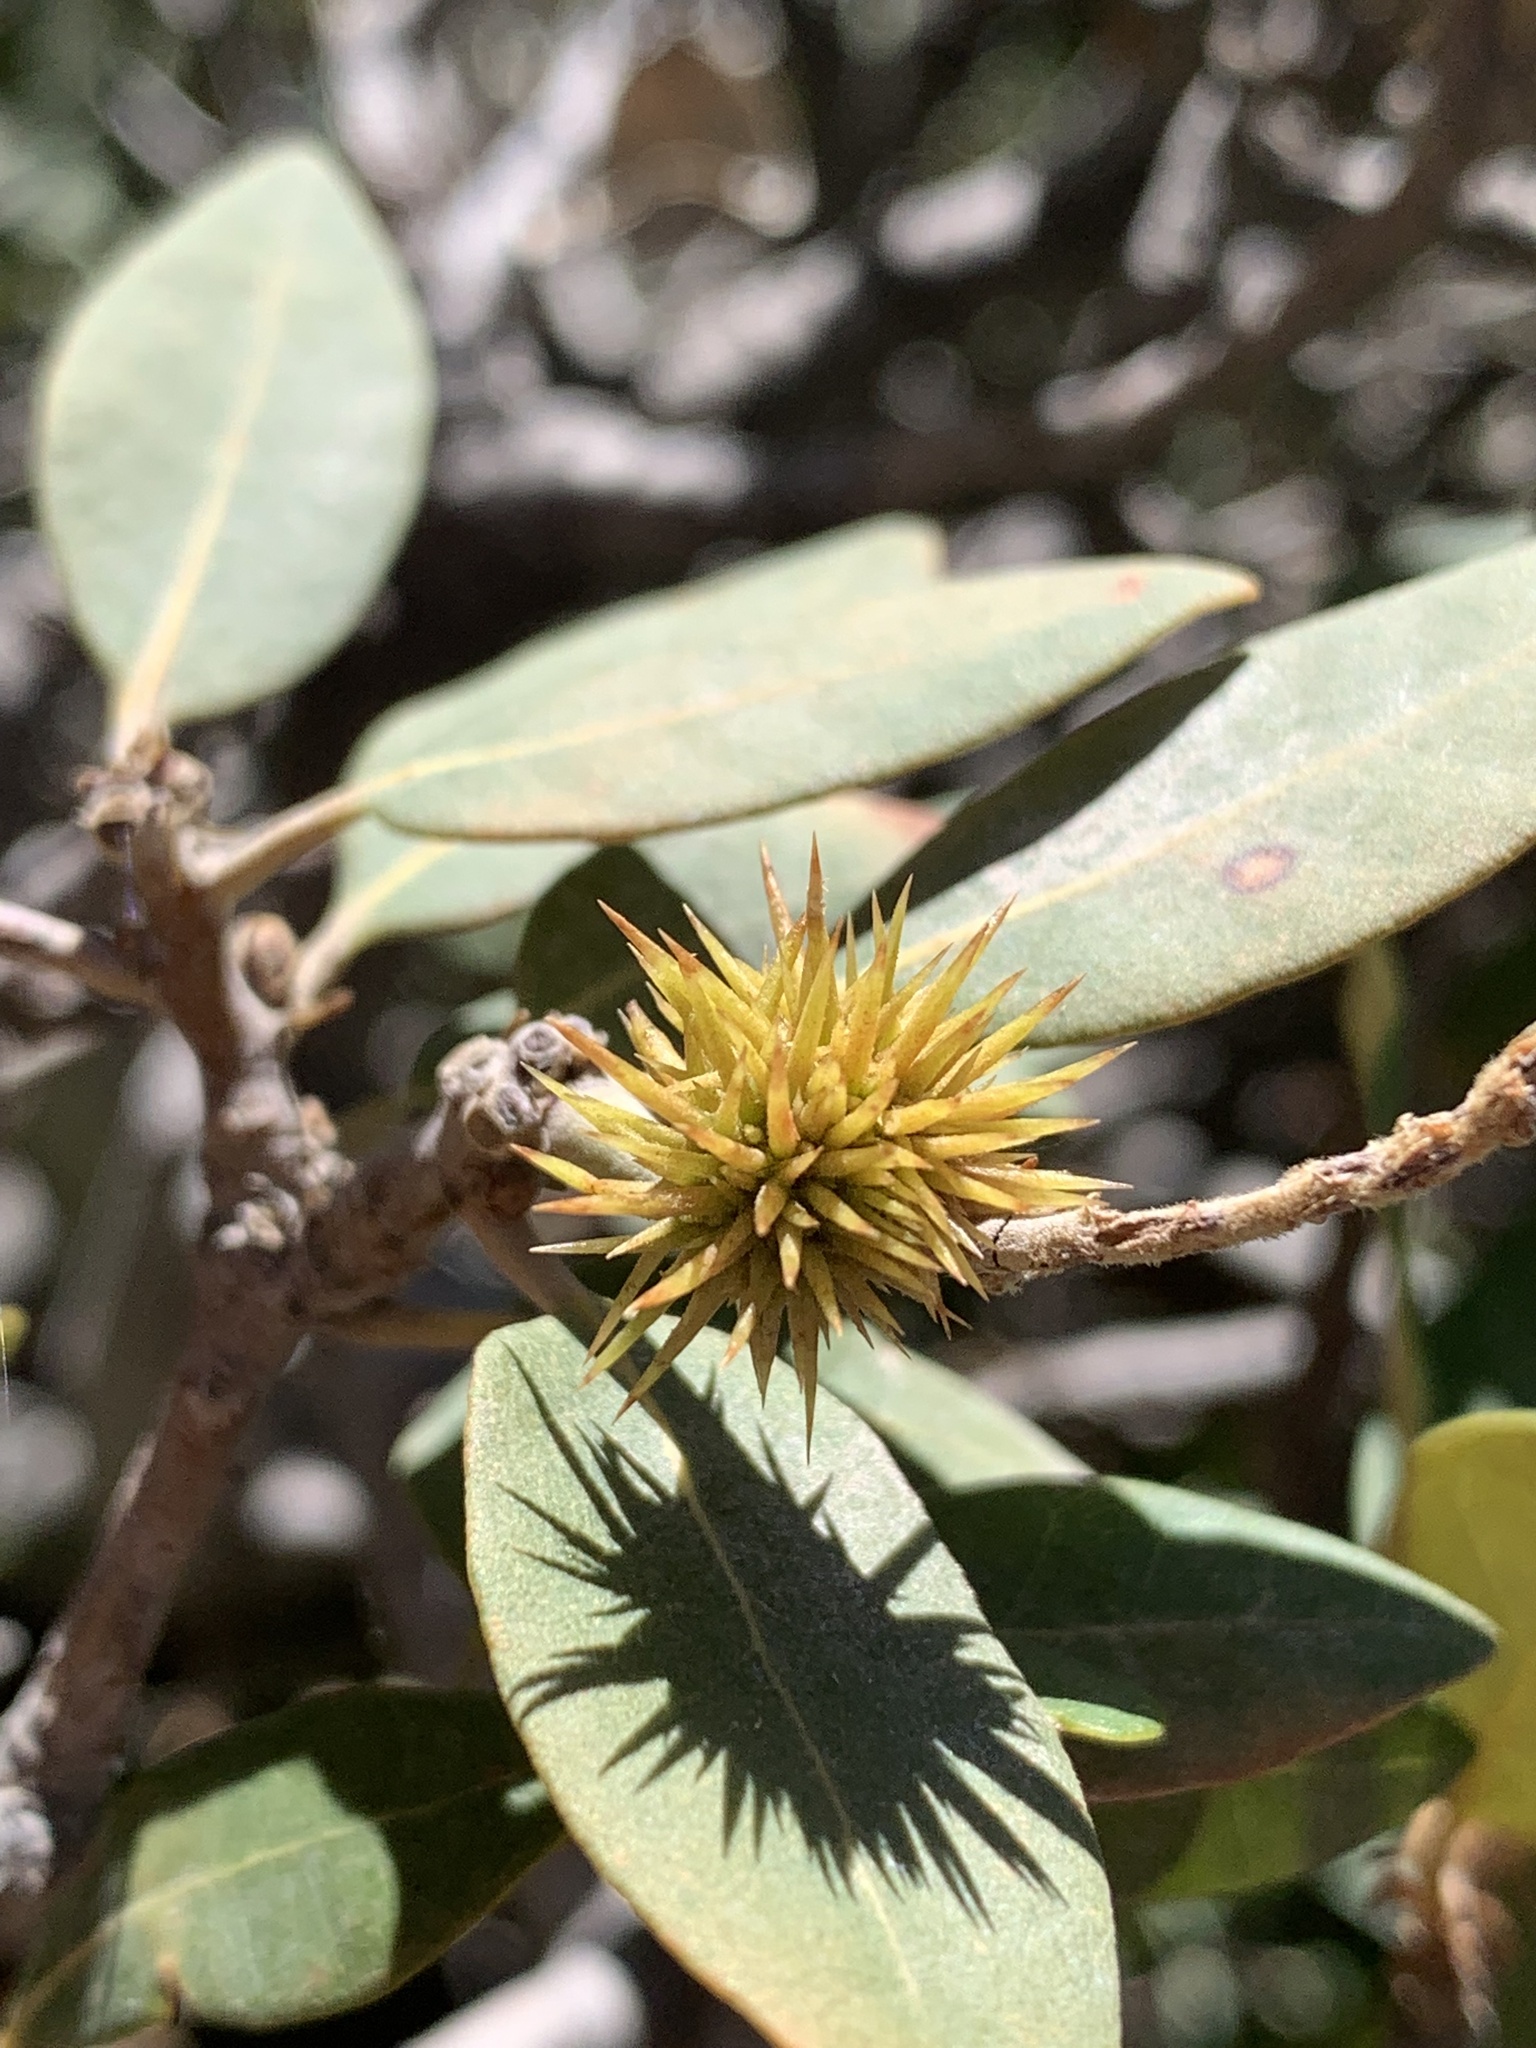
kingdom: Plantae
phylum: Tracheophyta
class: Magnoliopsida
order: Fagales
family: Fagaceae
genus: Chrysolepis
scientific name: Chrysolepis sempervirens
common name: Bush chinquapin
